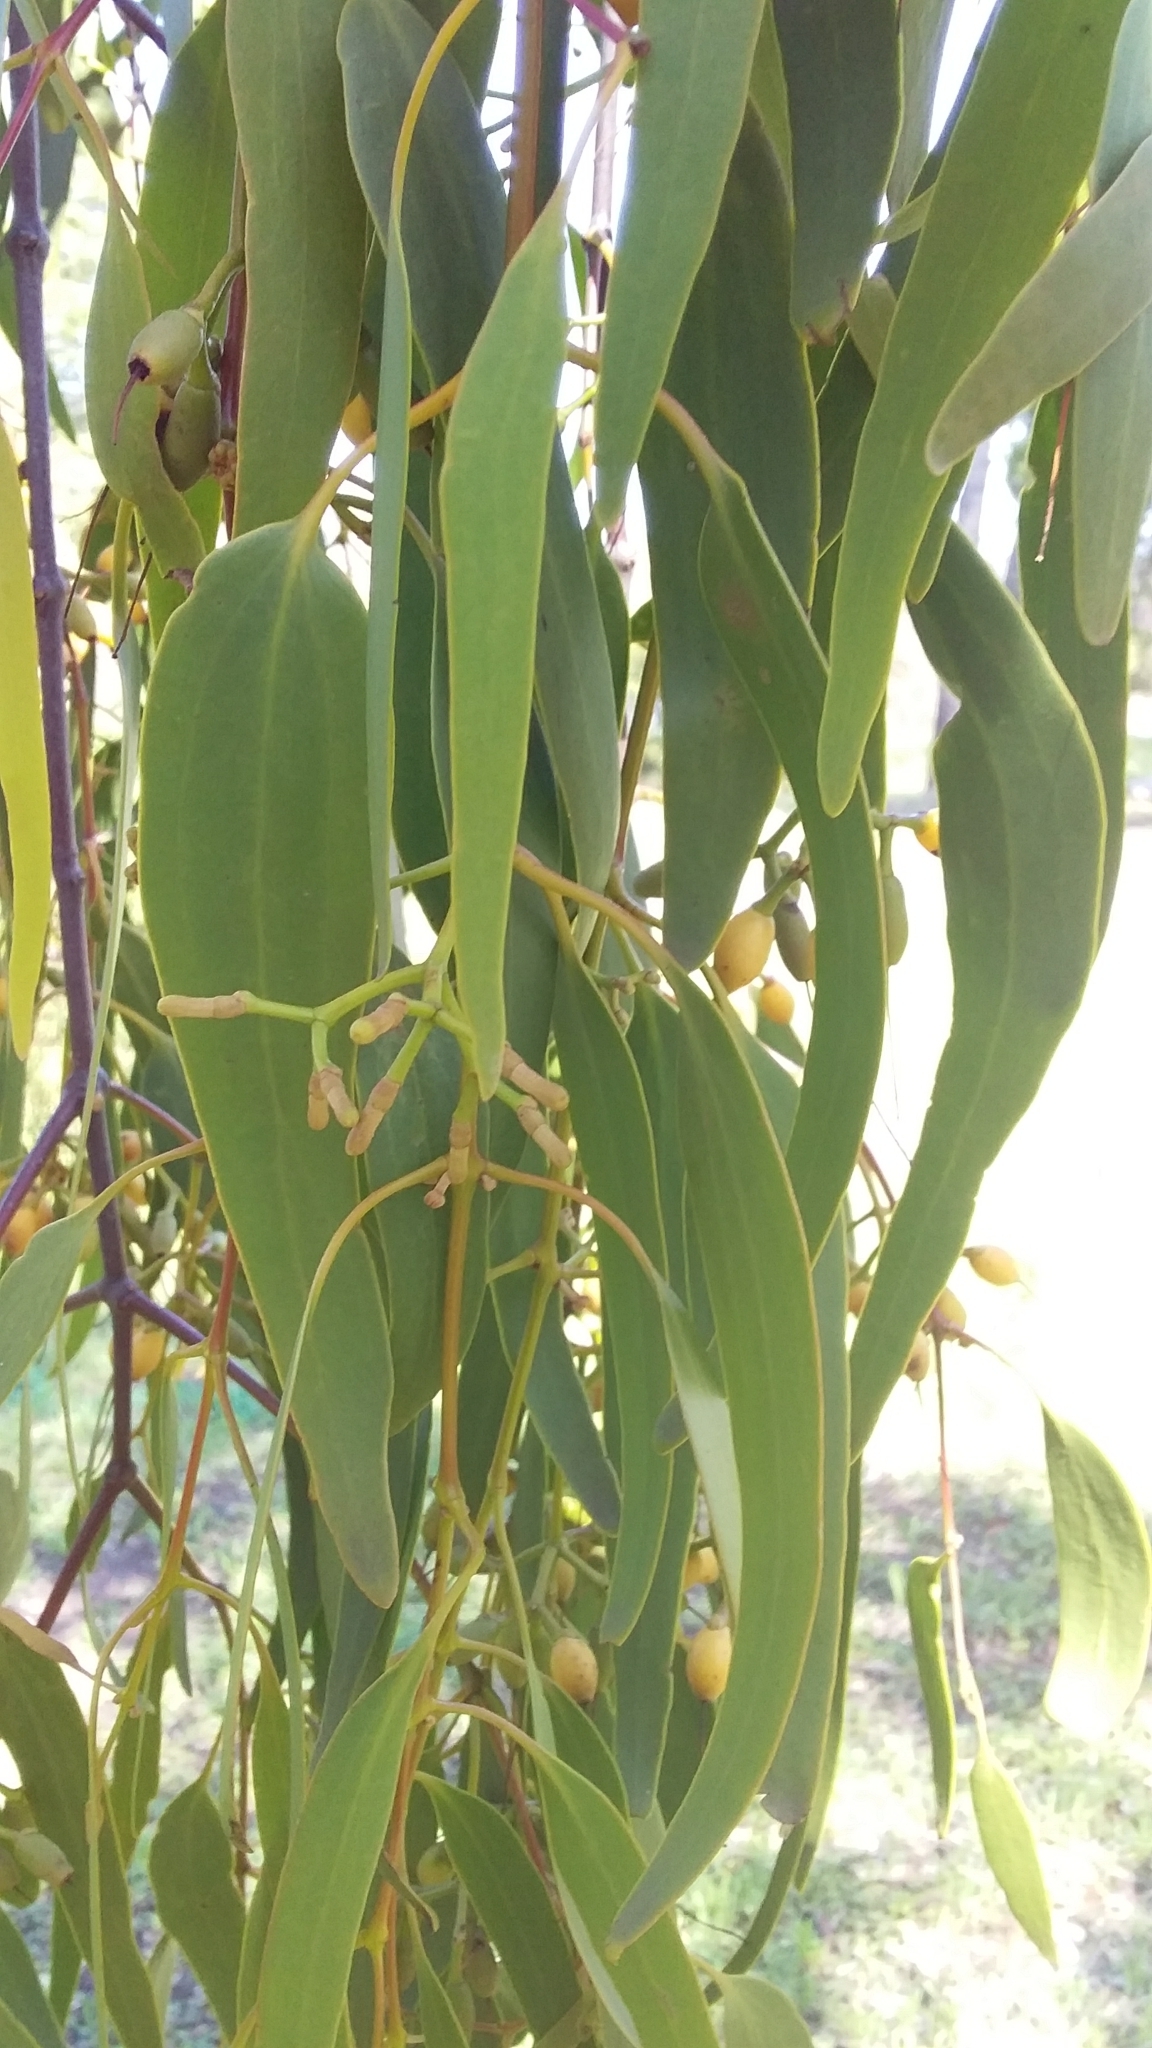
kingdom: Plantae
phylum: Tracheophyta
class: Magnoliopsida
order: Santalales
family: Loranthaceae
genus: Amyema
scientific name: Amyema miquelii
